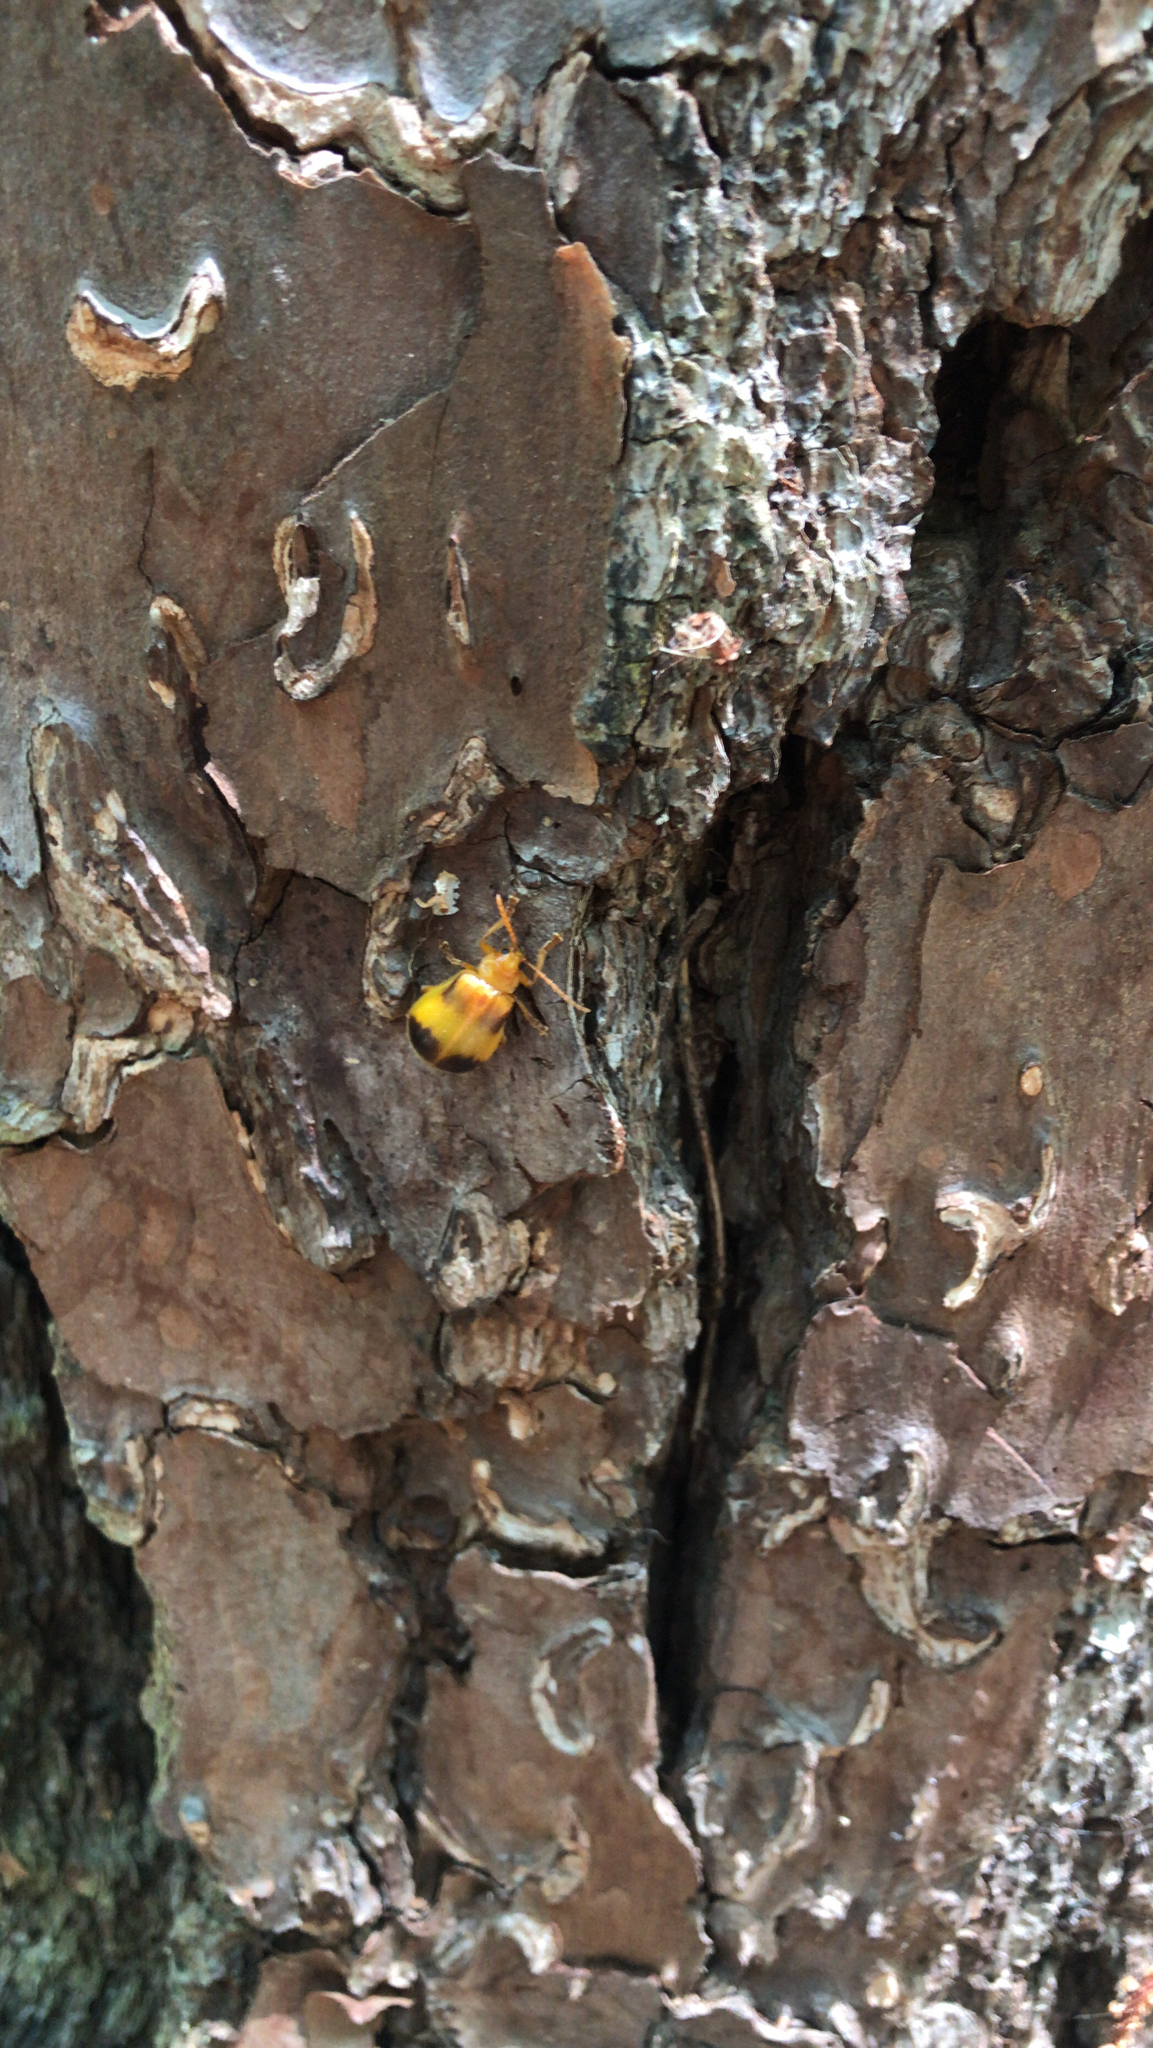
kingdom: Animalia
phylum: Arthropoda
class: Insecta
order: Coleoptera
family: Chrysomelidae
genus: Monocesta
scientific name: Monocesta coryli
